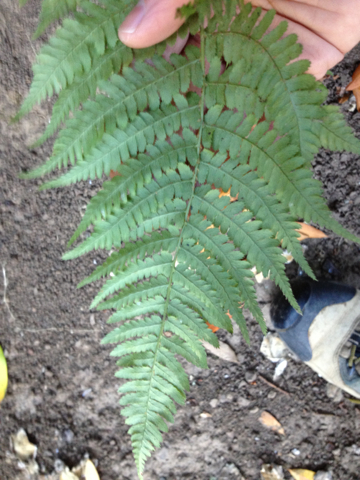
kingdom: Plantae
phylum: Tracheophyta
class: Polypodiopsida
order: Polypodiales
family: Dryopteridaceae
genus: Dryopteris
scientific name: Dryopteris arguta
